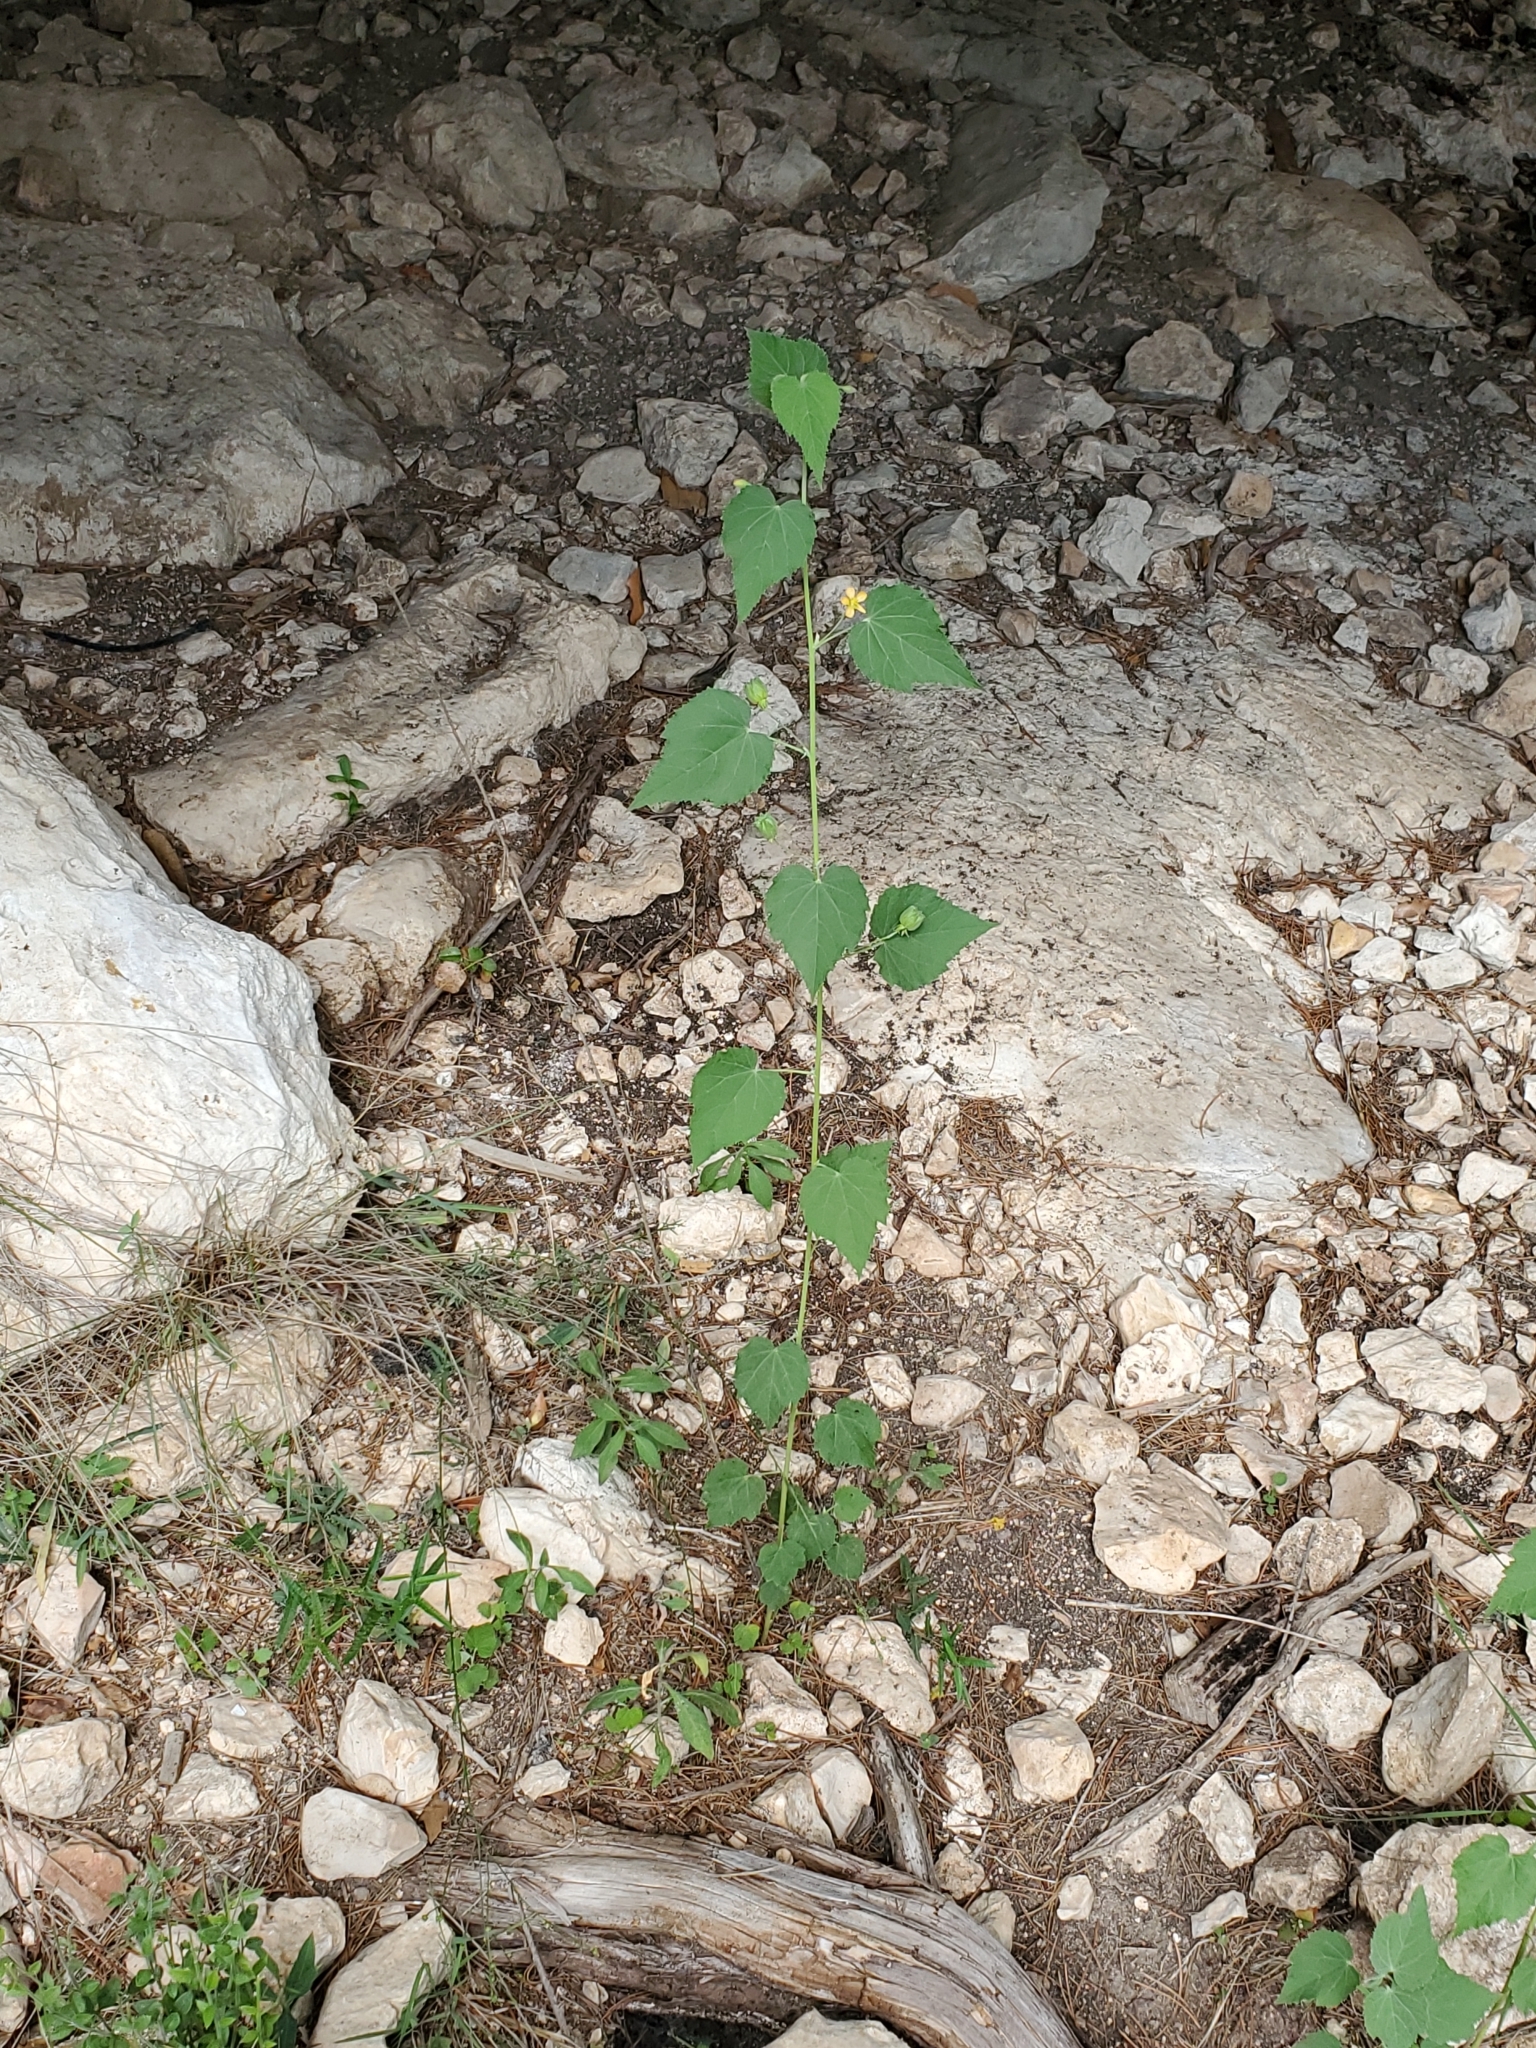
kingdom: Plantae
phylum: Tracheophyta
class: Magnoliopsida
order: Malvales
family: Malvaceae
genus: Abutilon
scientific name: Abutilon fruticosum
